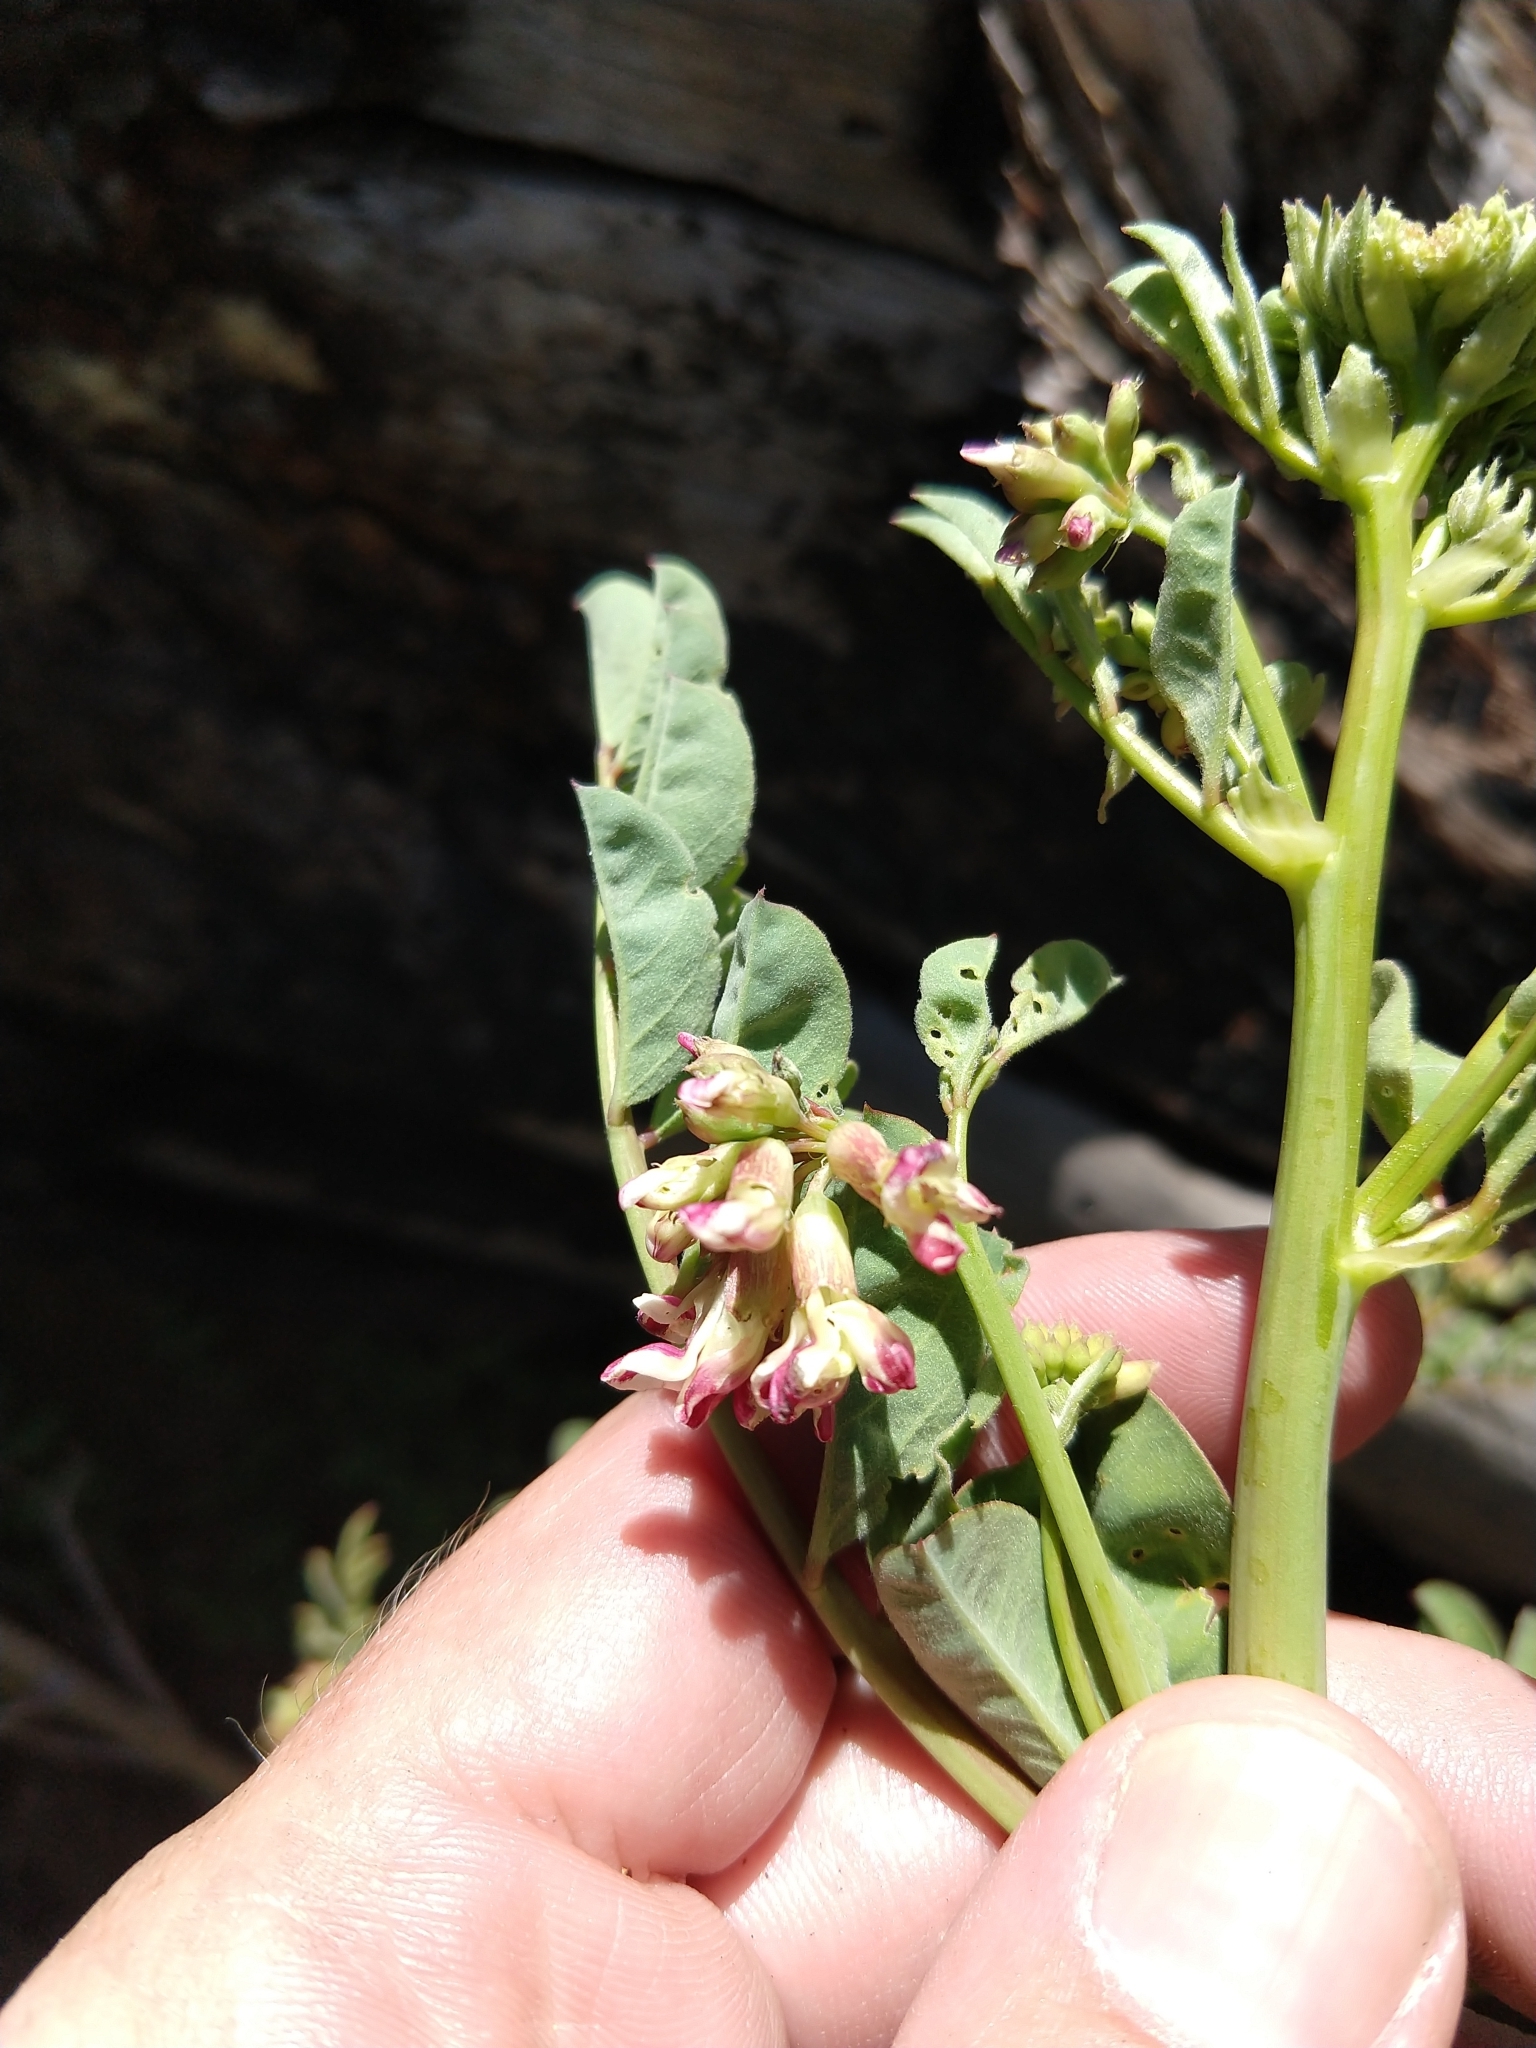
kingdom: Plantae
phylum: Tracheophyta
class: Magnoliopsida
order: Fabales
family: Fabaceae
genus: Hosackia
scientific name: Hosackia crassifolia
